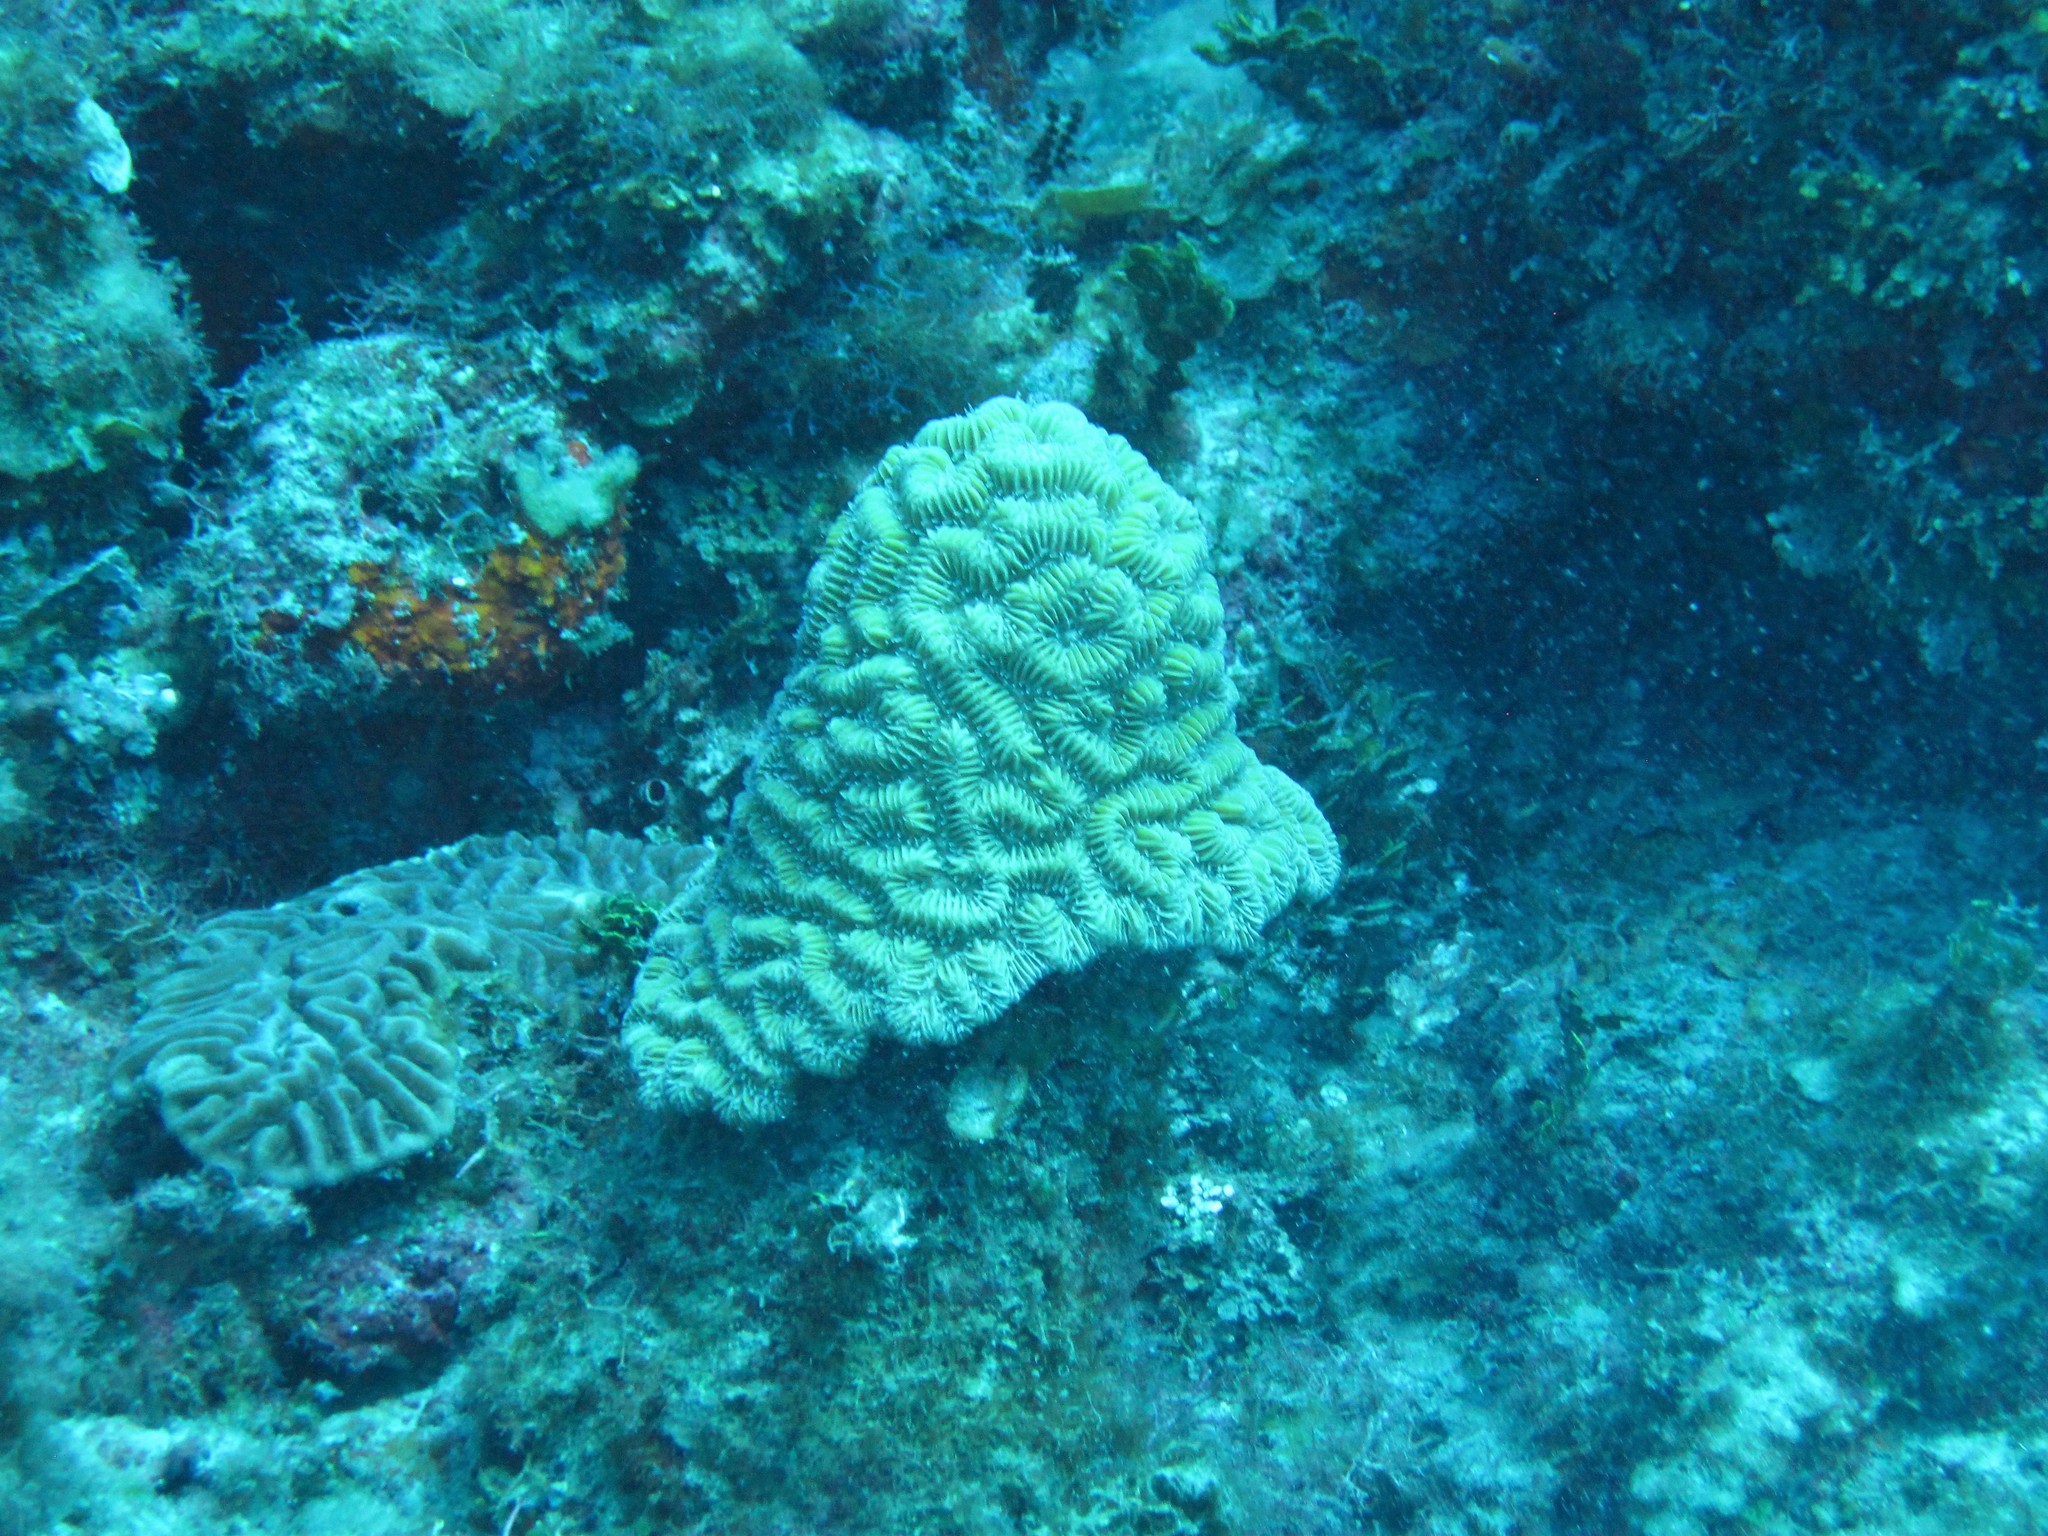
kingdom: Animalia
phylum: Cnidaria
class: Anthozoa
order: Scleractinia
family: Meandrinidae
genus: Meandrina
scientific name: Meandrina meandrites
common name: Maze coral
